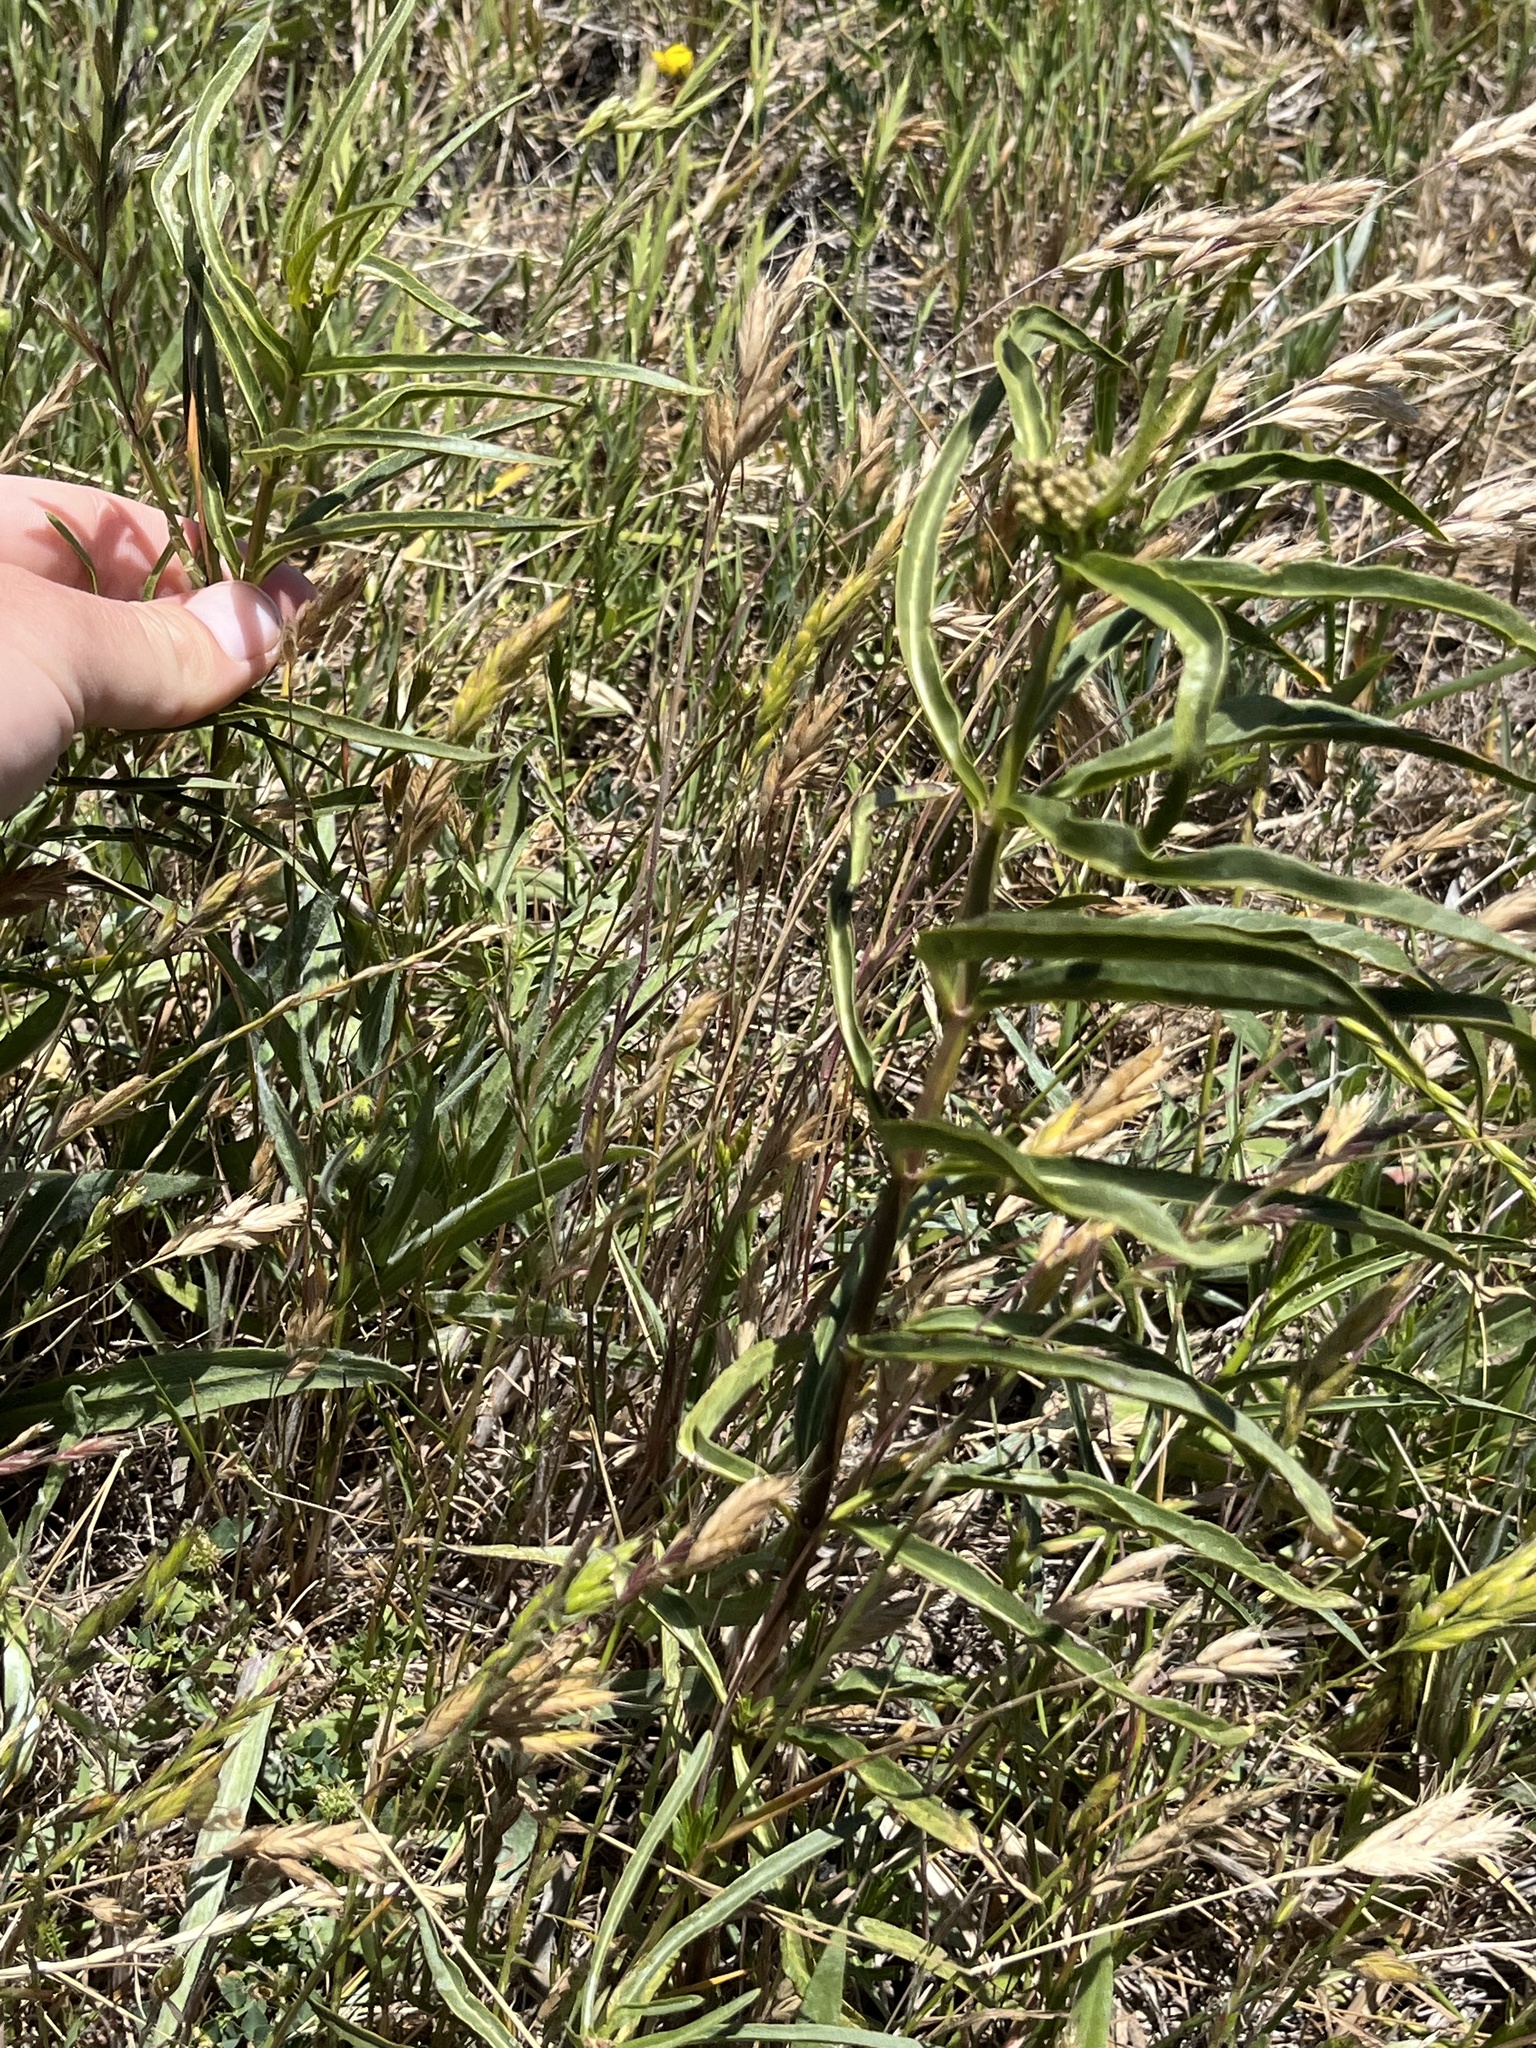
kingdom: Plantae
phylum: Tracheophyta
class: Magnoliopsida
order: Gentianales
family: Apocynaceae
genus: Asclepias
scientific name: Asclepias fascicularis
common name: Mexican milkweed
